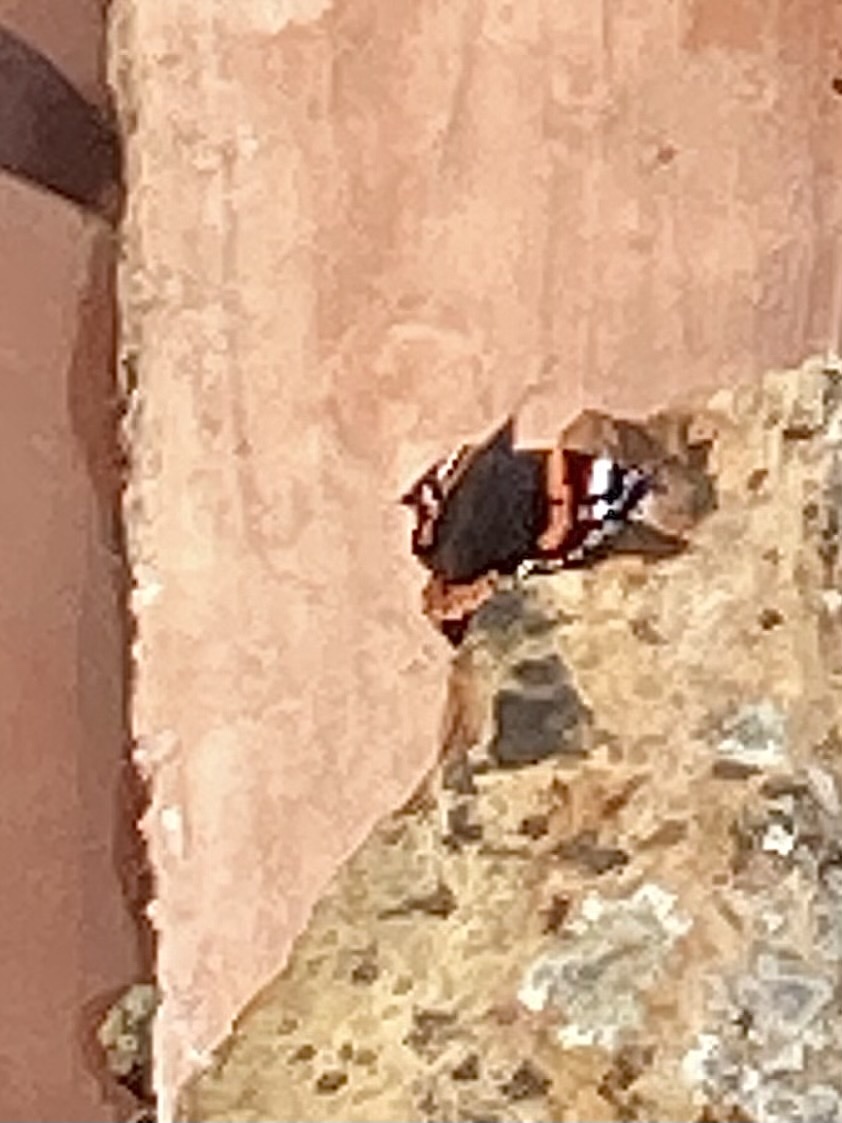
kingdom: Animalia
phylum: Arthropoda
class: Insecta
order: Lepidoptera
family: Nymphalidae
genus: Vanessa
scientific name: Vanessa atalanta
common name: Red admiral
